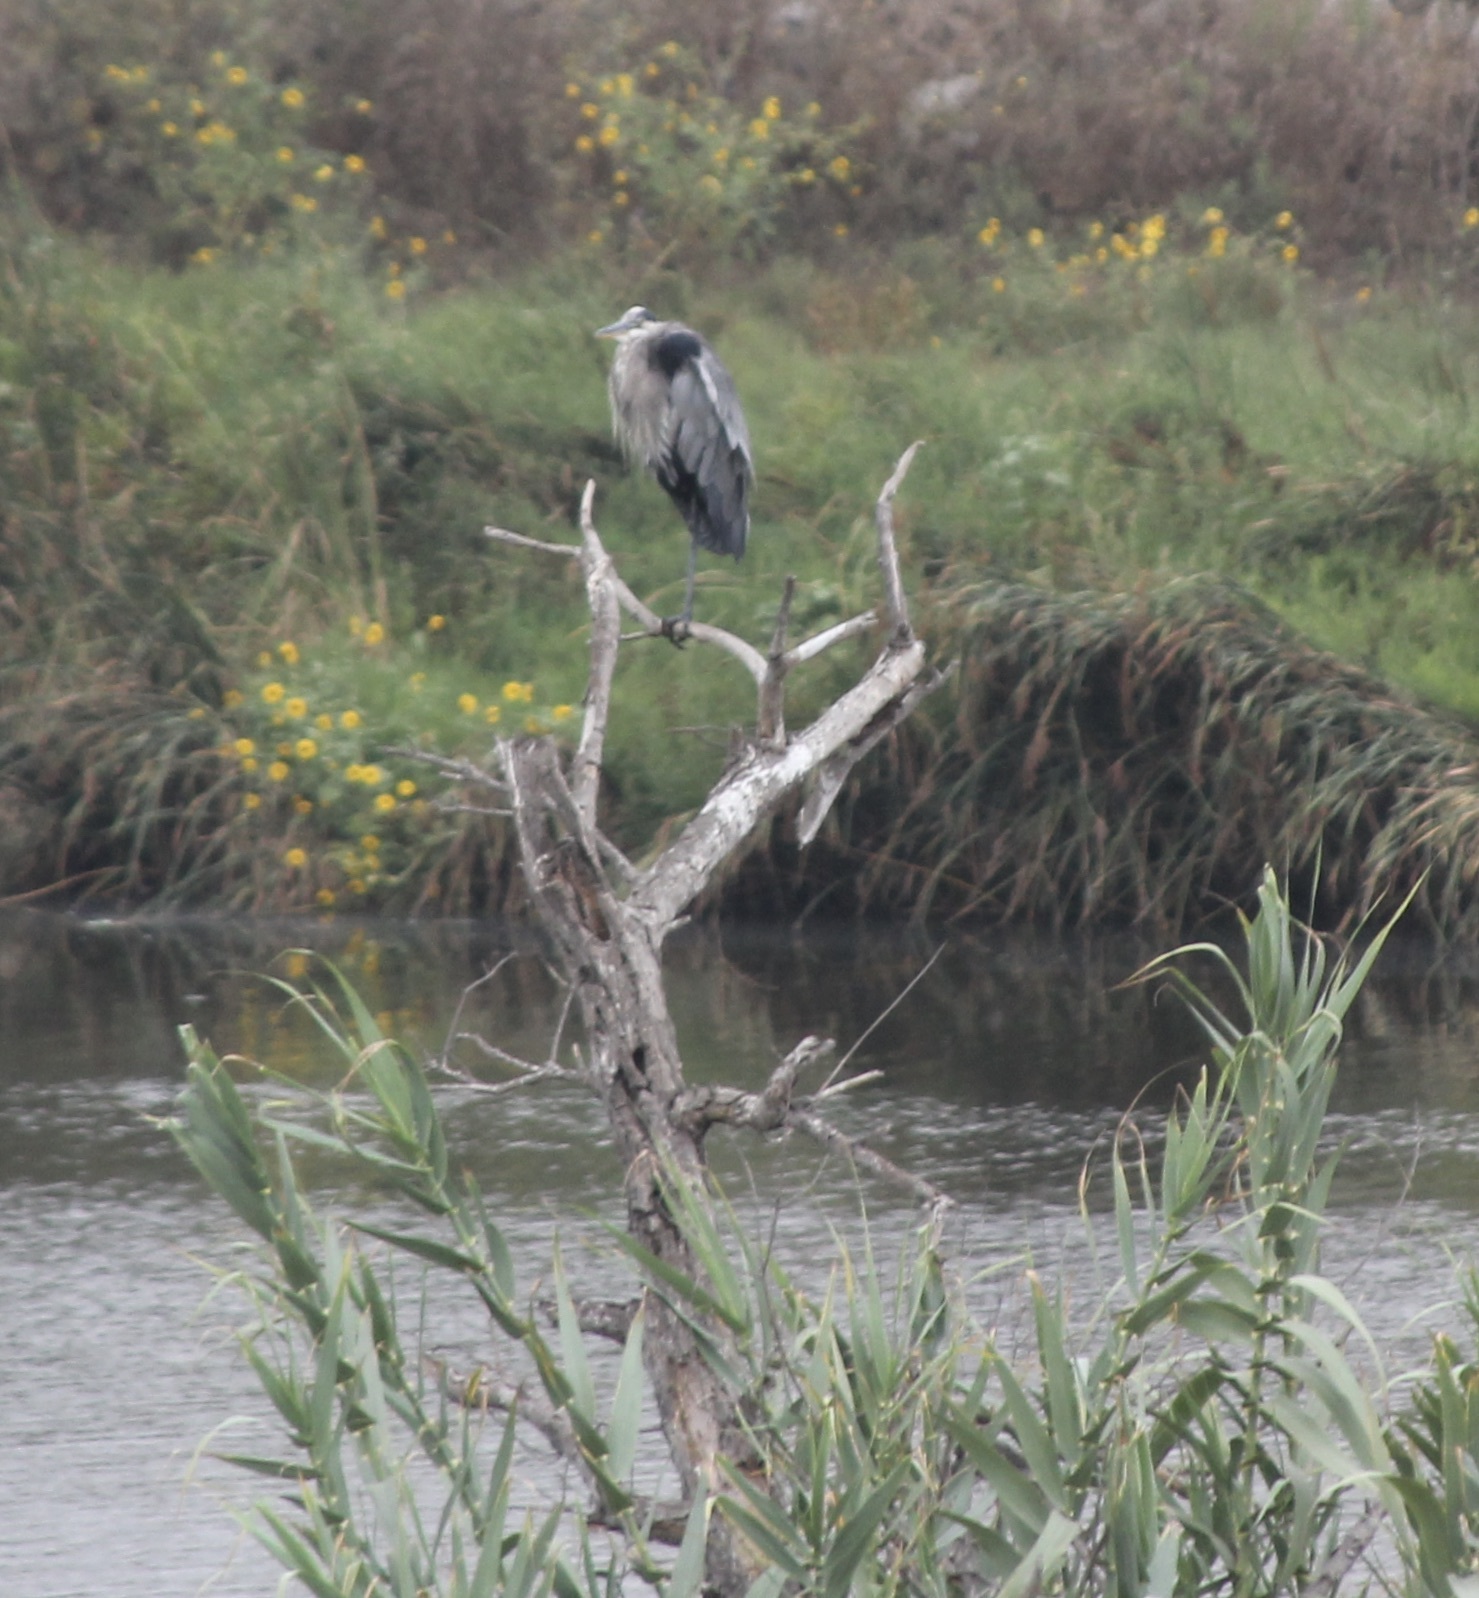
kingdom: Animalia
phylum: Chordata
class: Aves
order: Pelecaniformes
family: Ardeidae
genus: Ardea
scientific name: Ardea herodias
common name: Great blue heron
